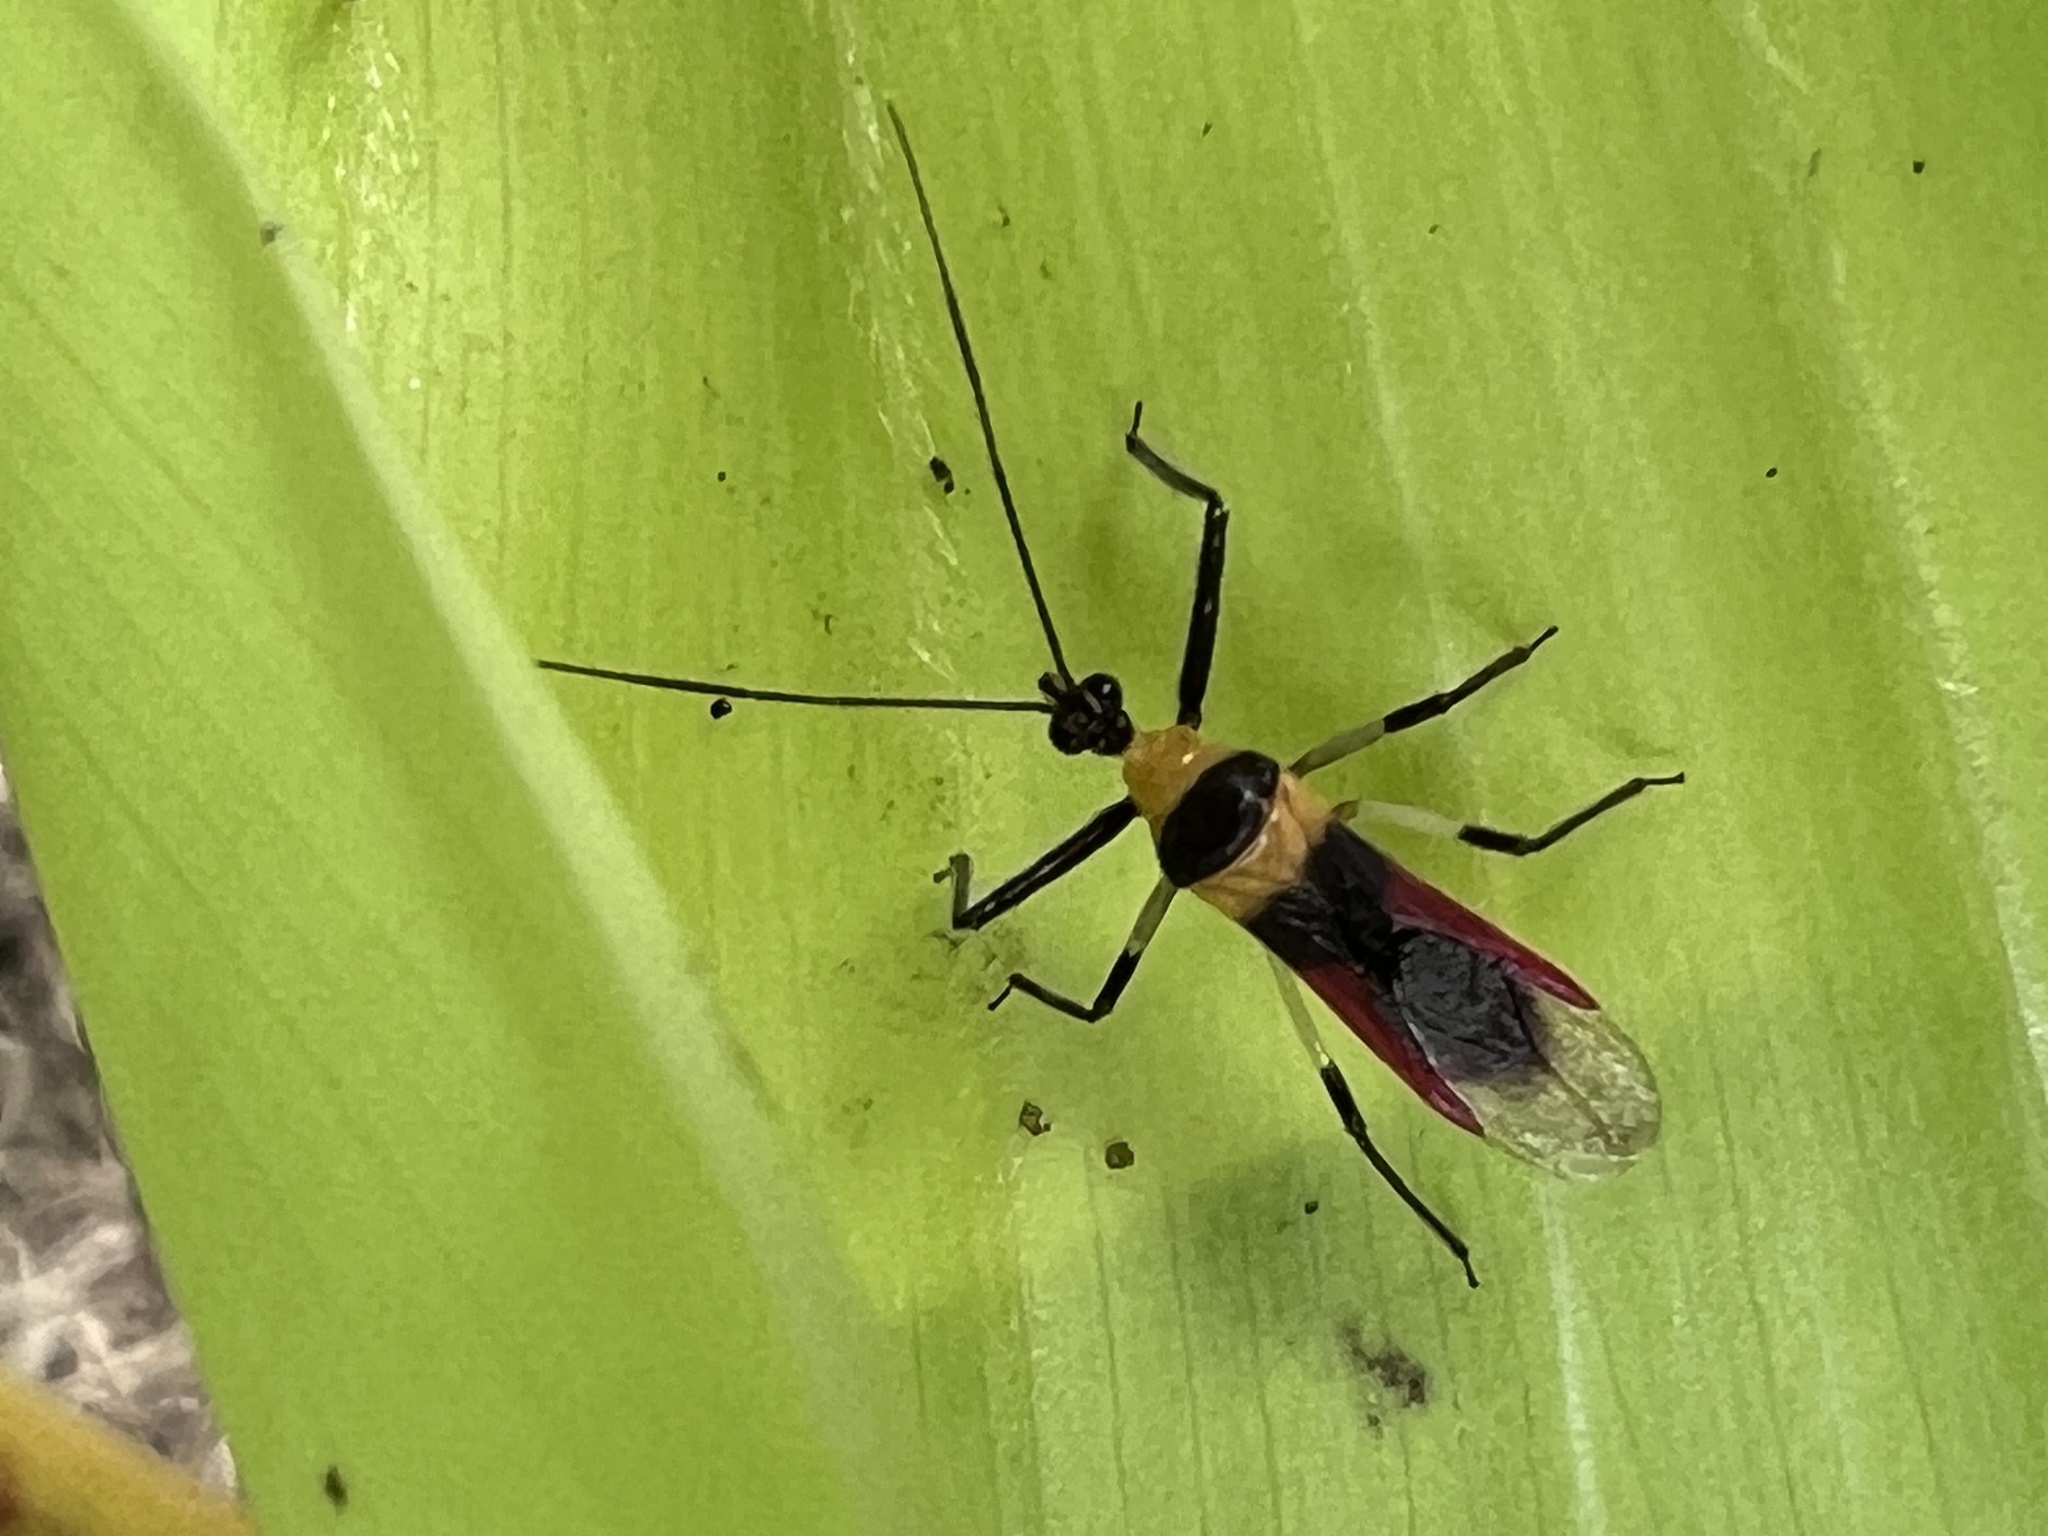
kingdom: Animalia
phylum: Arthropoda
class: Insecta
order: Hemiptera
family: Reduviidae
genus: Castolus
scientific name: Castolus tricolor
